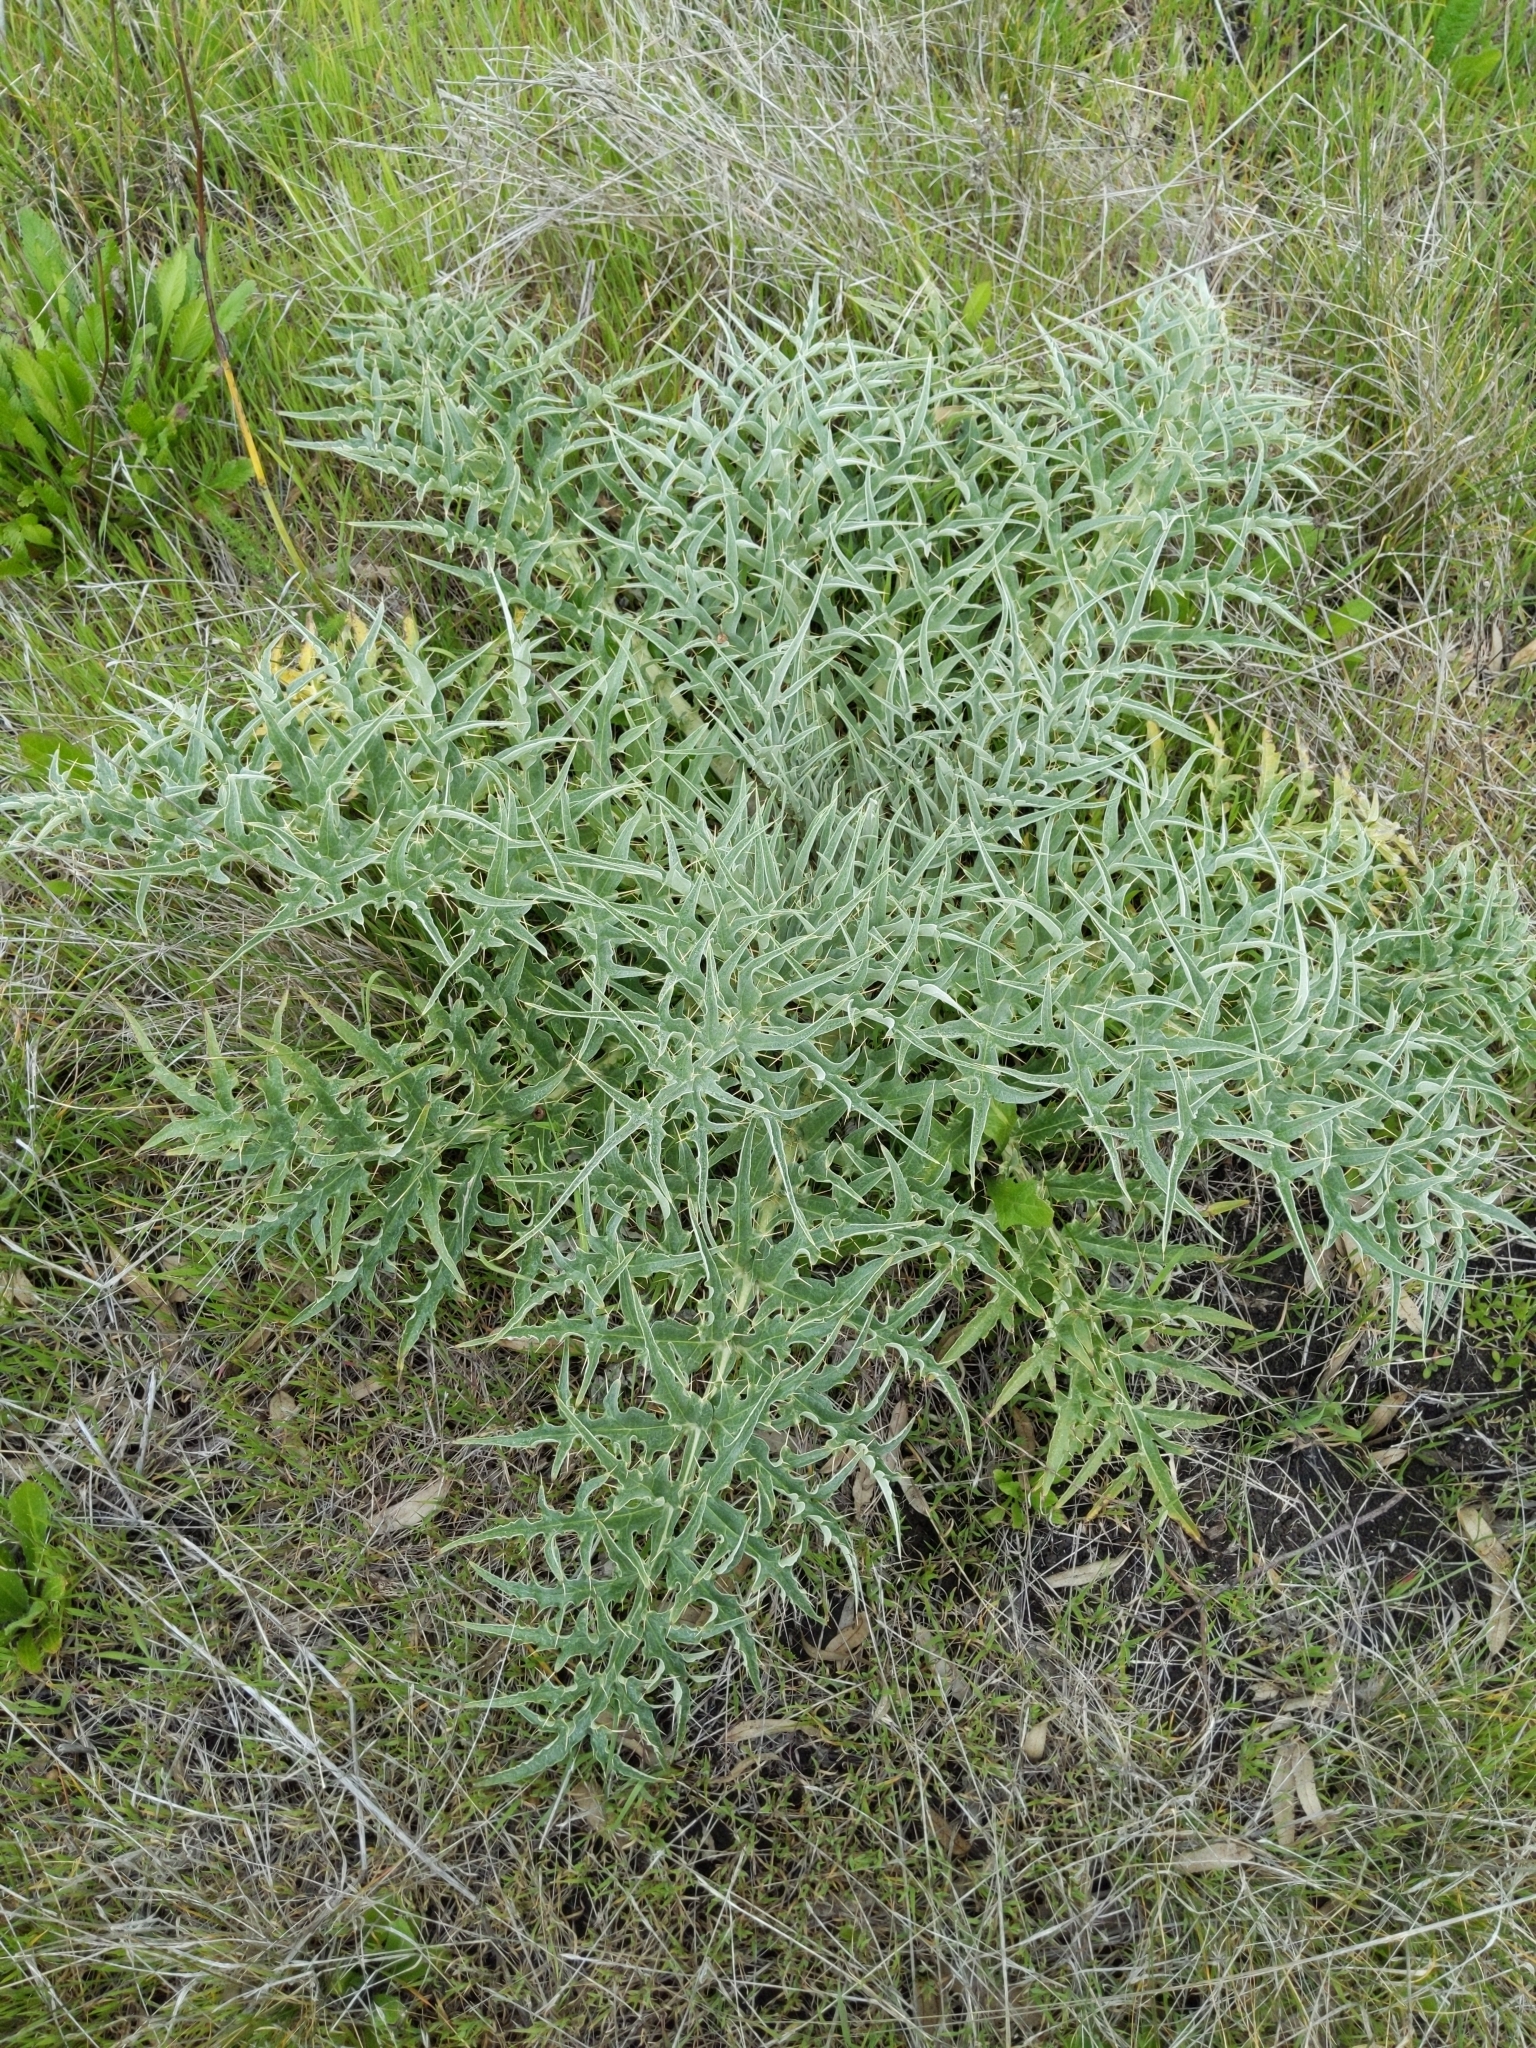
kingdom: Plantae
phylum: Tracheophyta
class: Magnoliopsida
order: Asterales
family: Asteraceae
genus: Cynara
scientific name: Cynara cardunculus
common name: Globe artichoke
